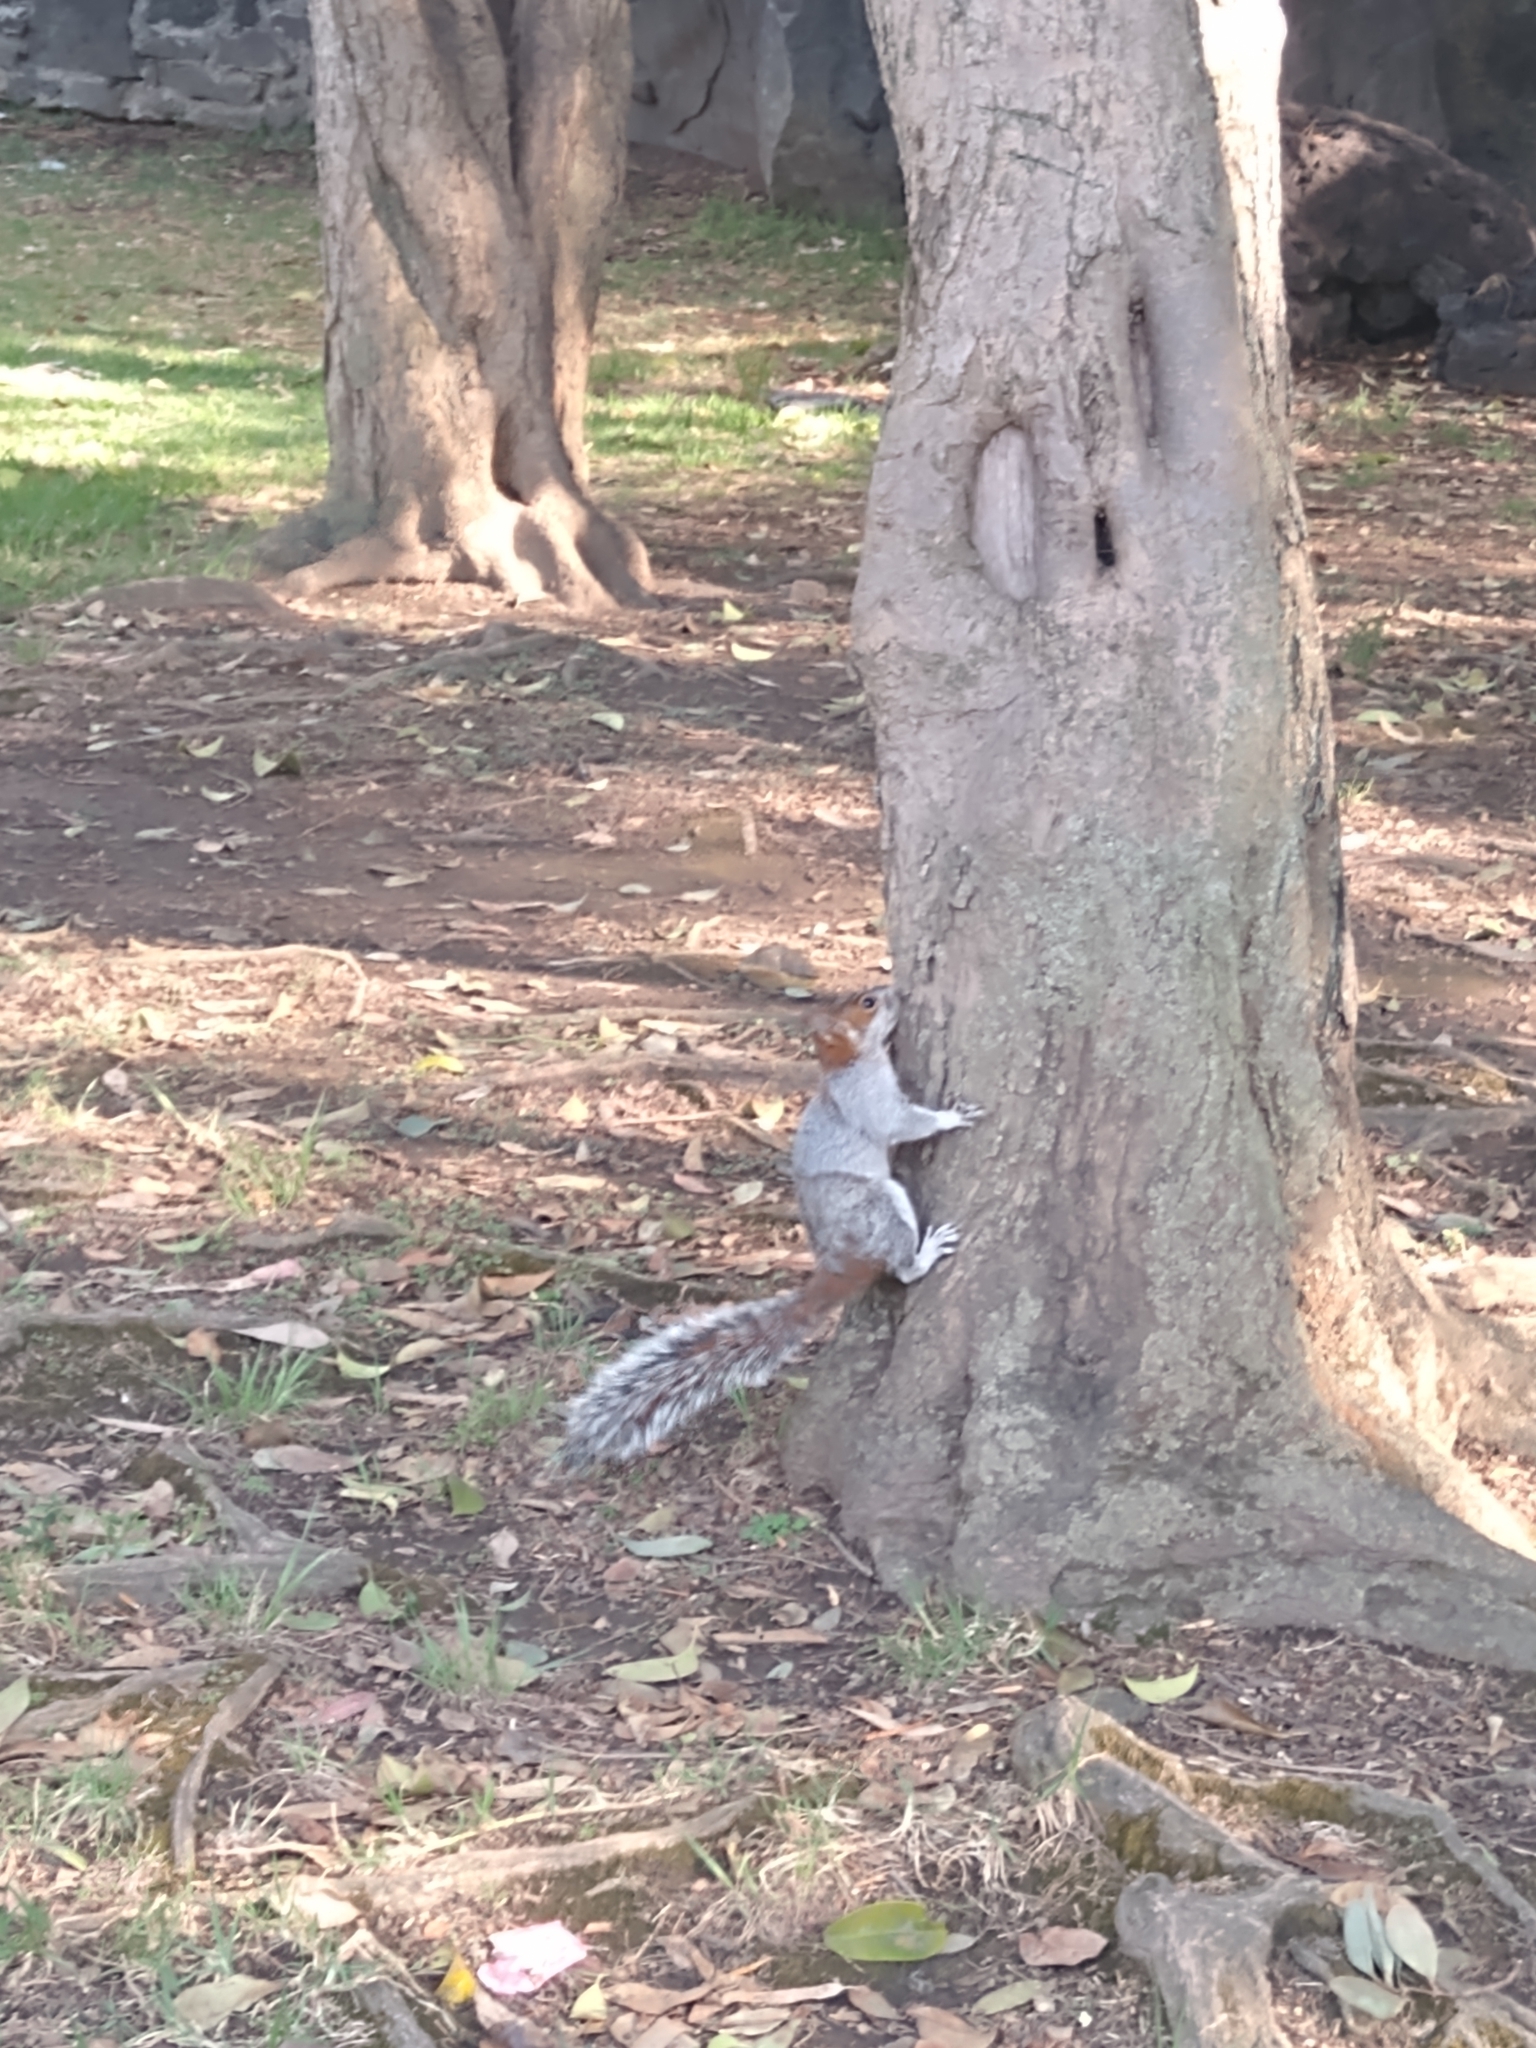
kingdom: Animalia
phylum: Chordata
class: Mammalia
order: Rodentia
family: Sciuridae
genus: Sciurus
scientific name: Sciurus aureogaster
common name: Red-bellied squirrel
